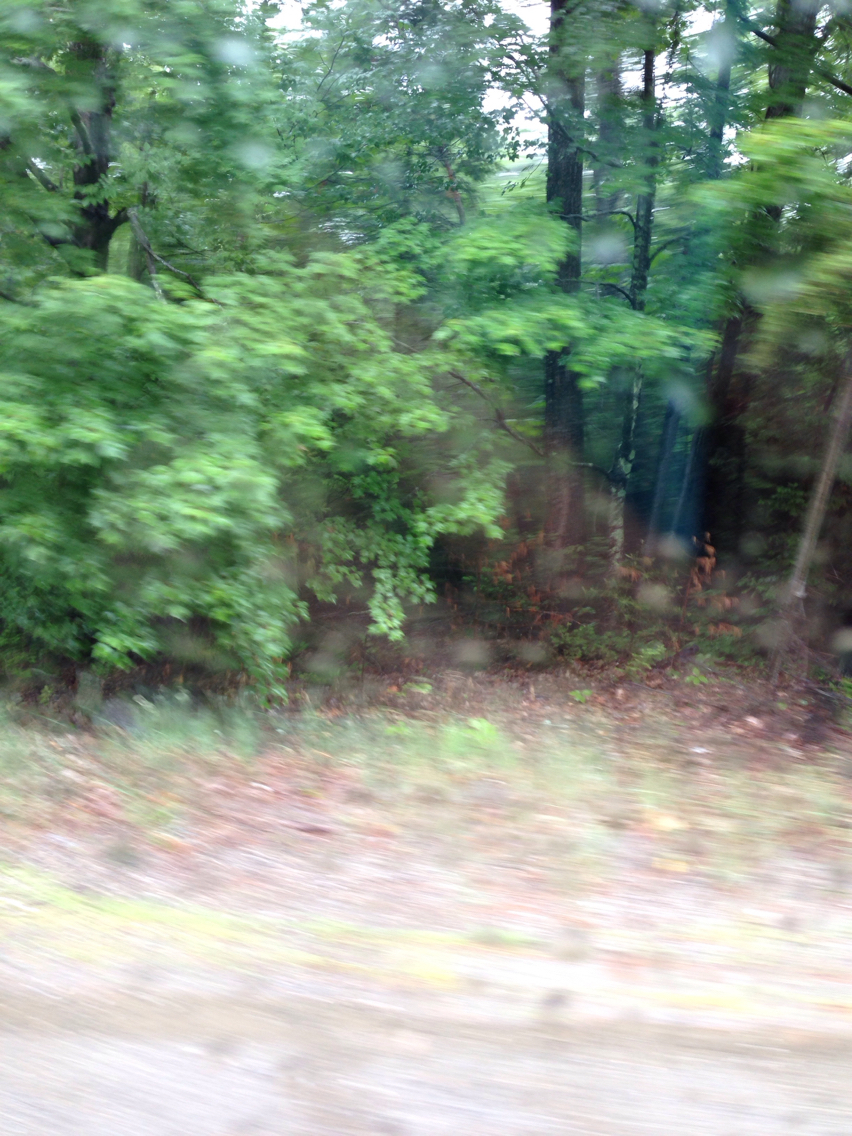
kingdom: Plantae
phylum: Tracheophyta
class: Magnoliopsida
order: Sapindales
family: Sapindaceae
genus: Acer
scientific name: Acer rubrum
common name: Red maple
